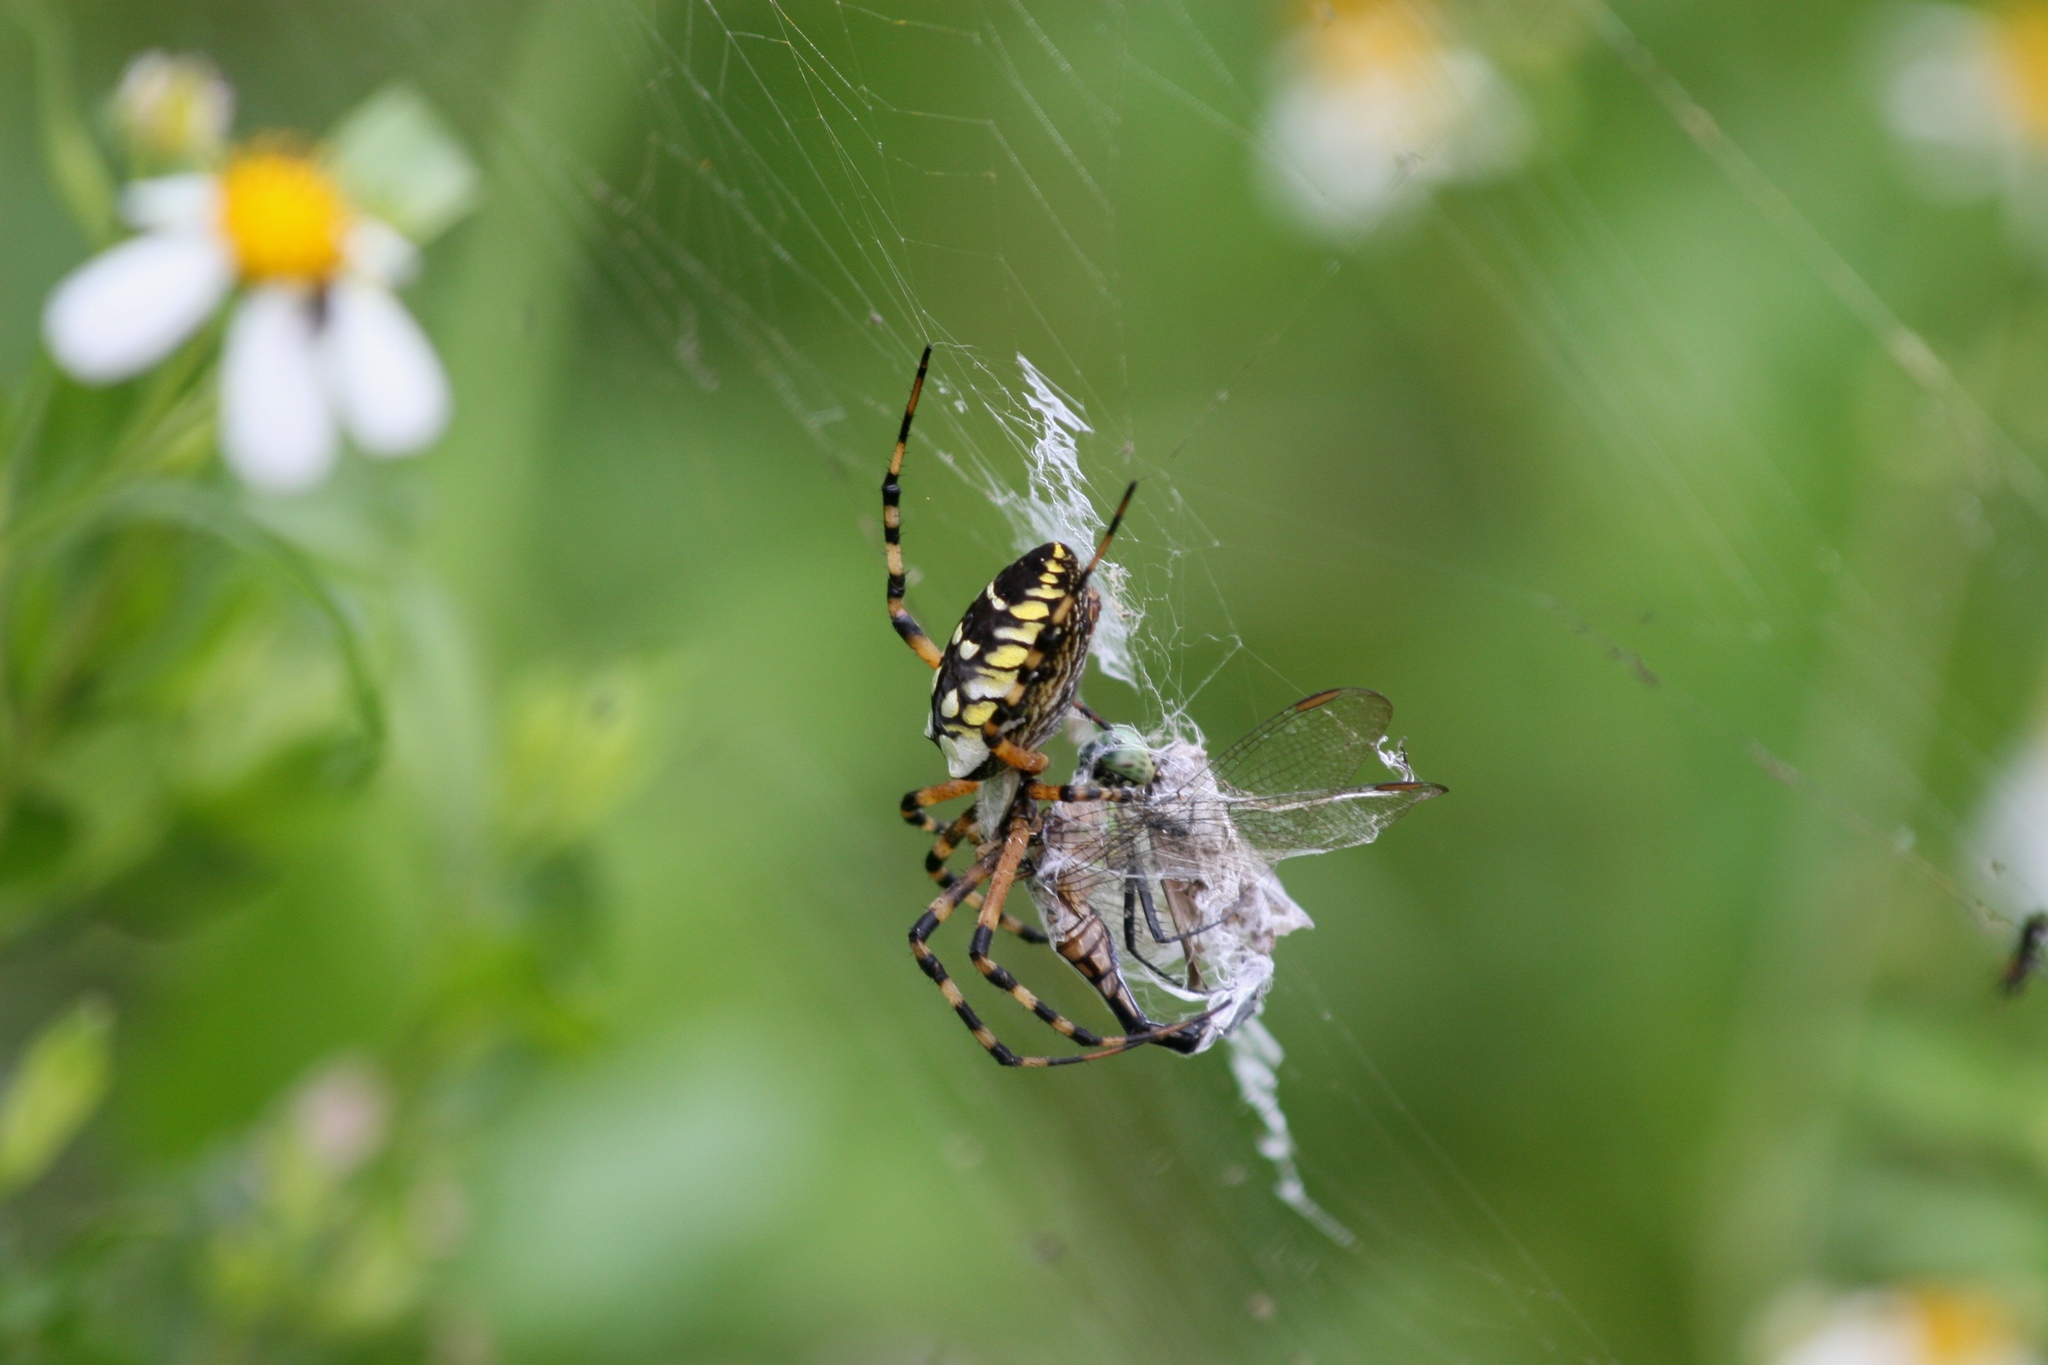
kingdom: Animalia
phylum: Arthropoda
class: Arachnida
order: Araneae
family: Araneidae
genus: Argiope
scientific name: Argiope aurantia
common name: Orb weavers
